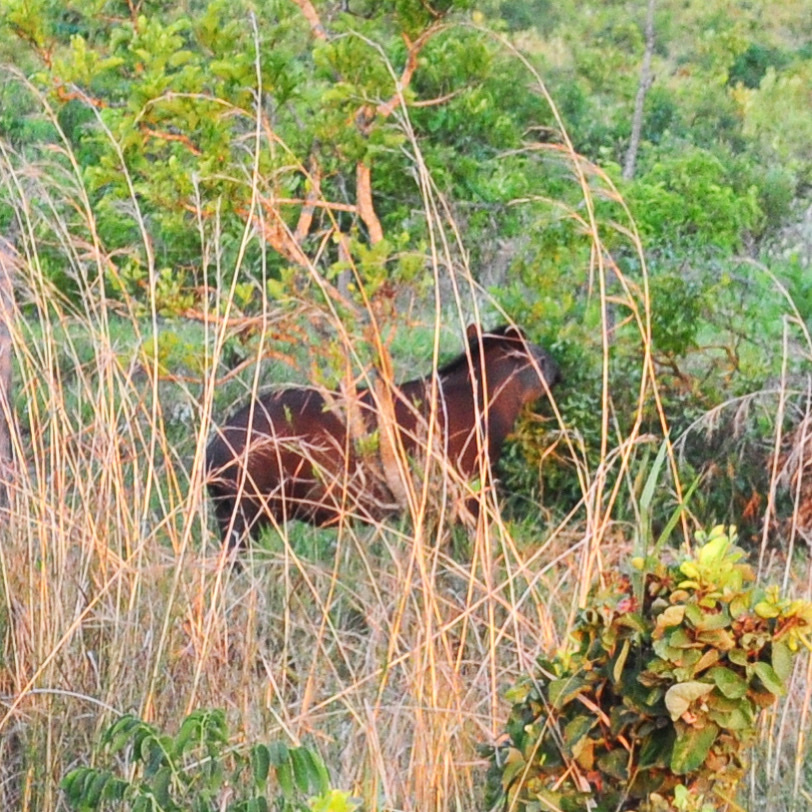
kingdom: Animalia
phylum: Chordata
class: Mammalia
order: Perissodactyla
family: Tapiridae
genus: Tapirus
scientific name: Tapirus terrestris
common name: Brazilian tapir
